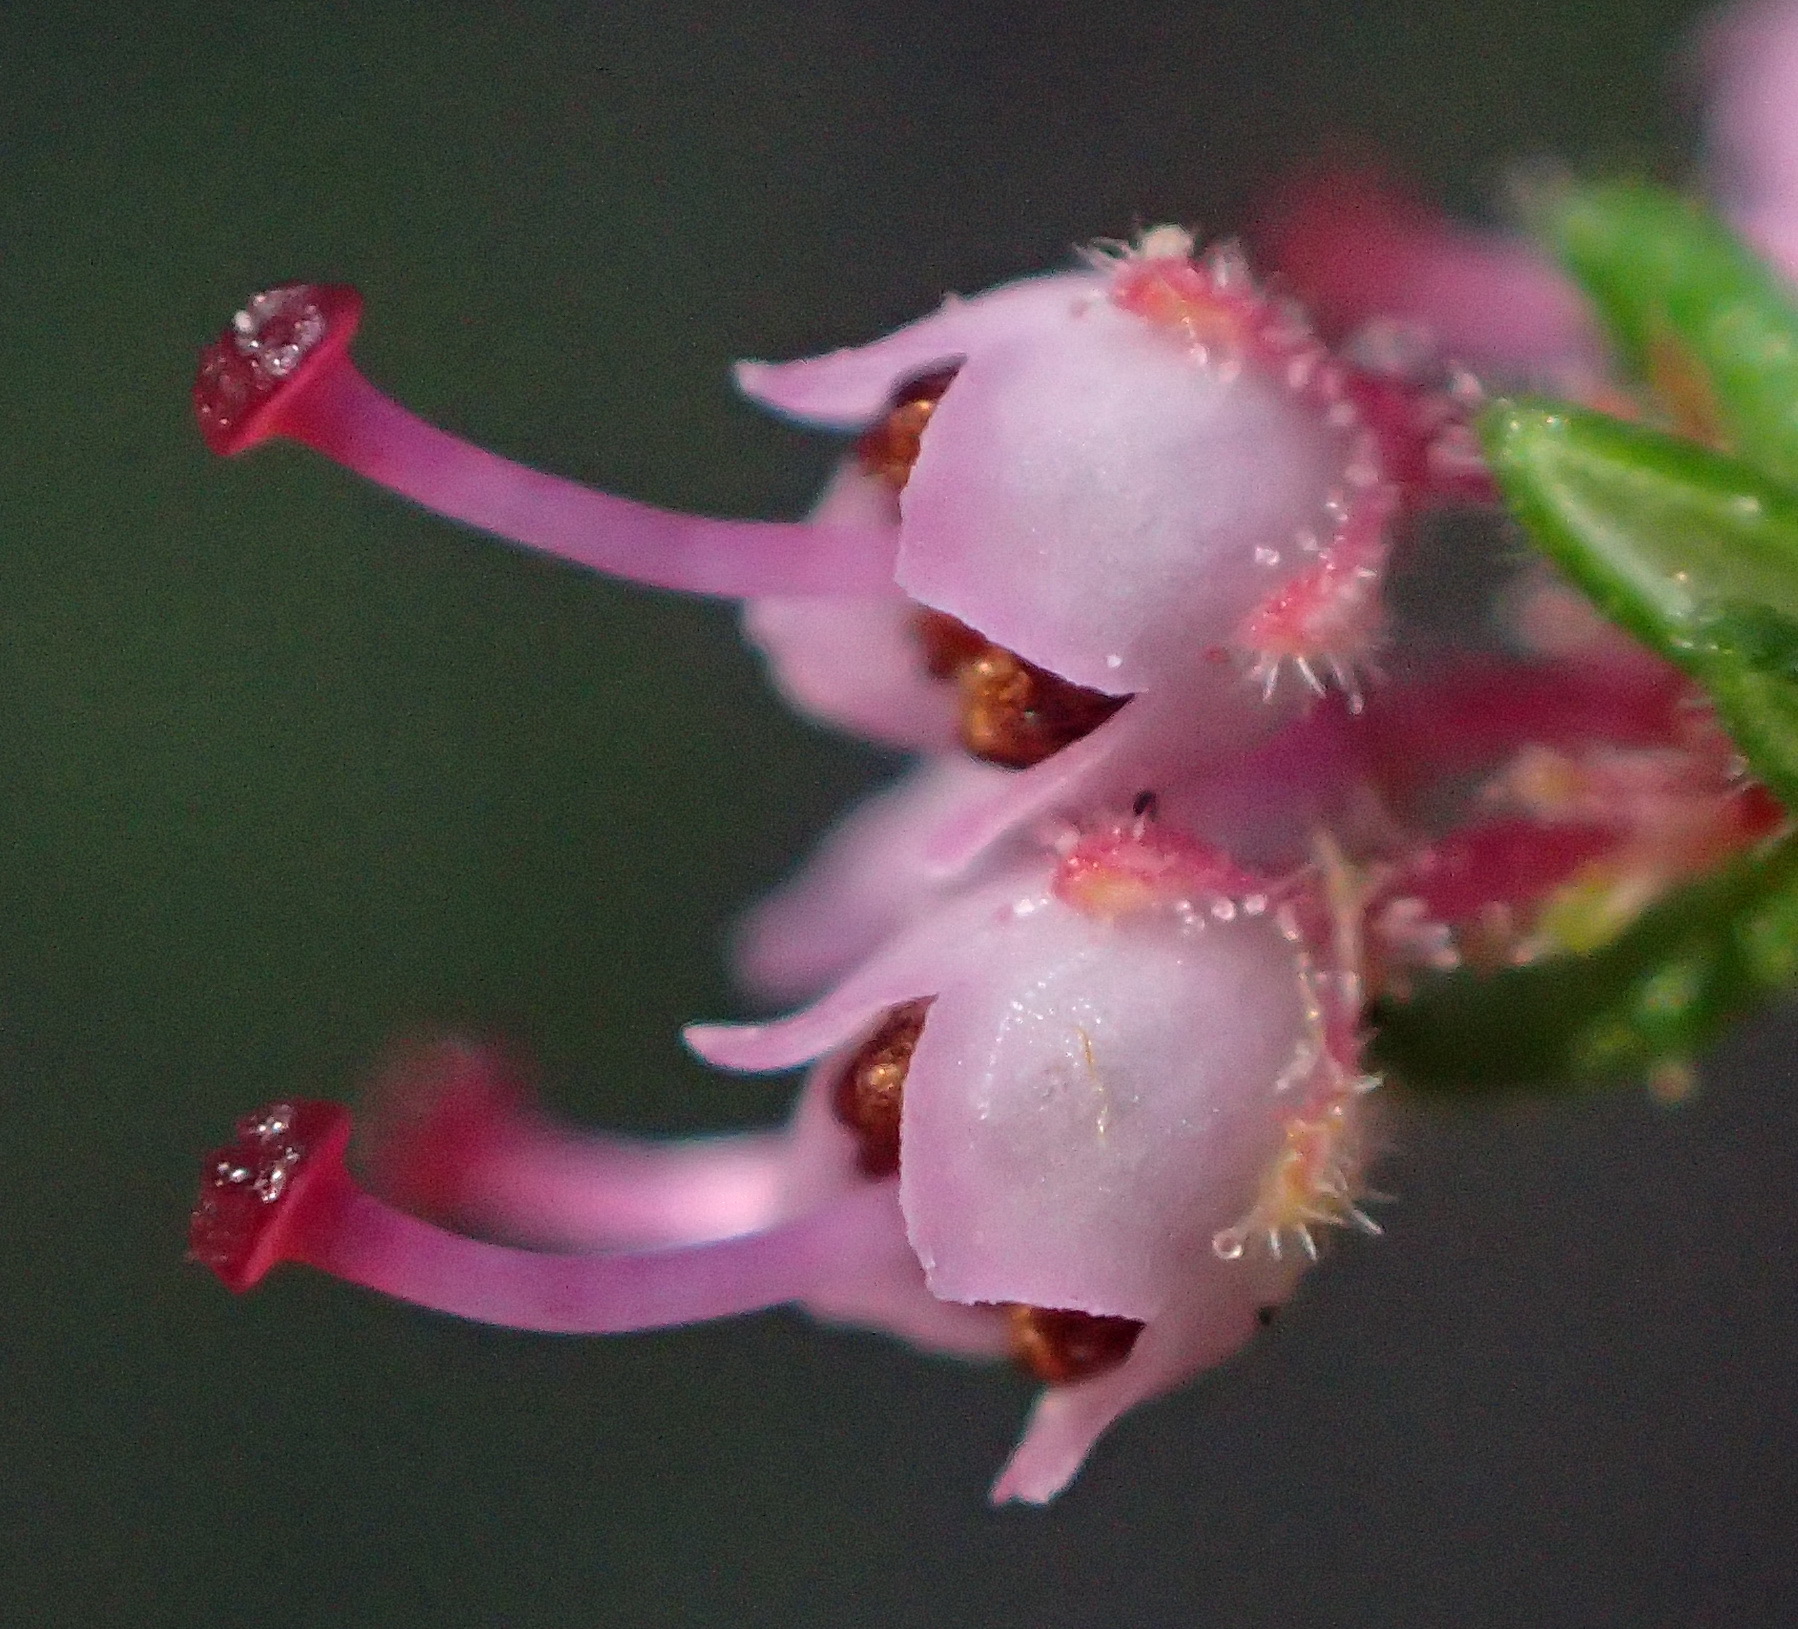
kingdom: Plantae
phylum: Tracheophyta
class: Magnoliopsida
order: Ericales
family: Ericaceae
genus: Erica
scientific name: Erica copiosa
